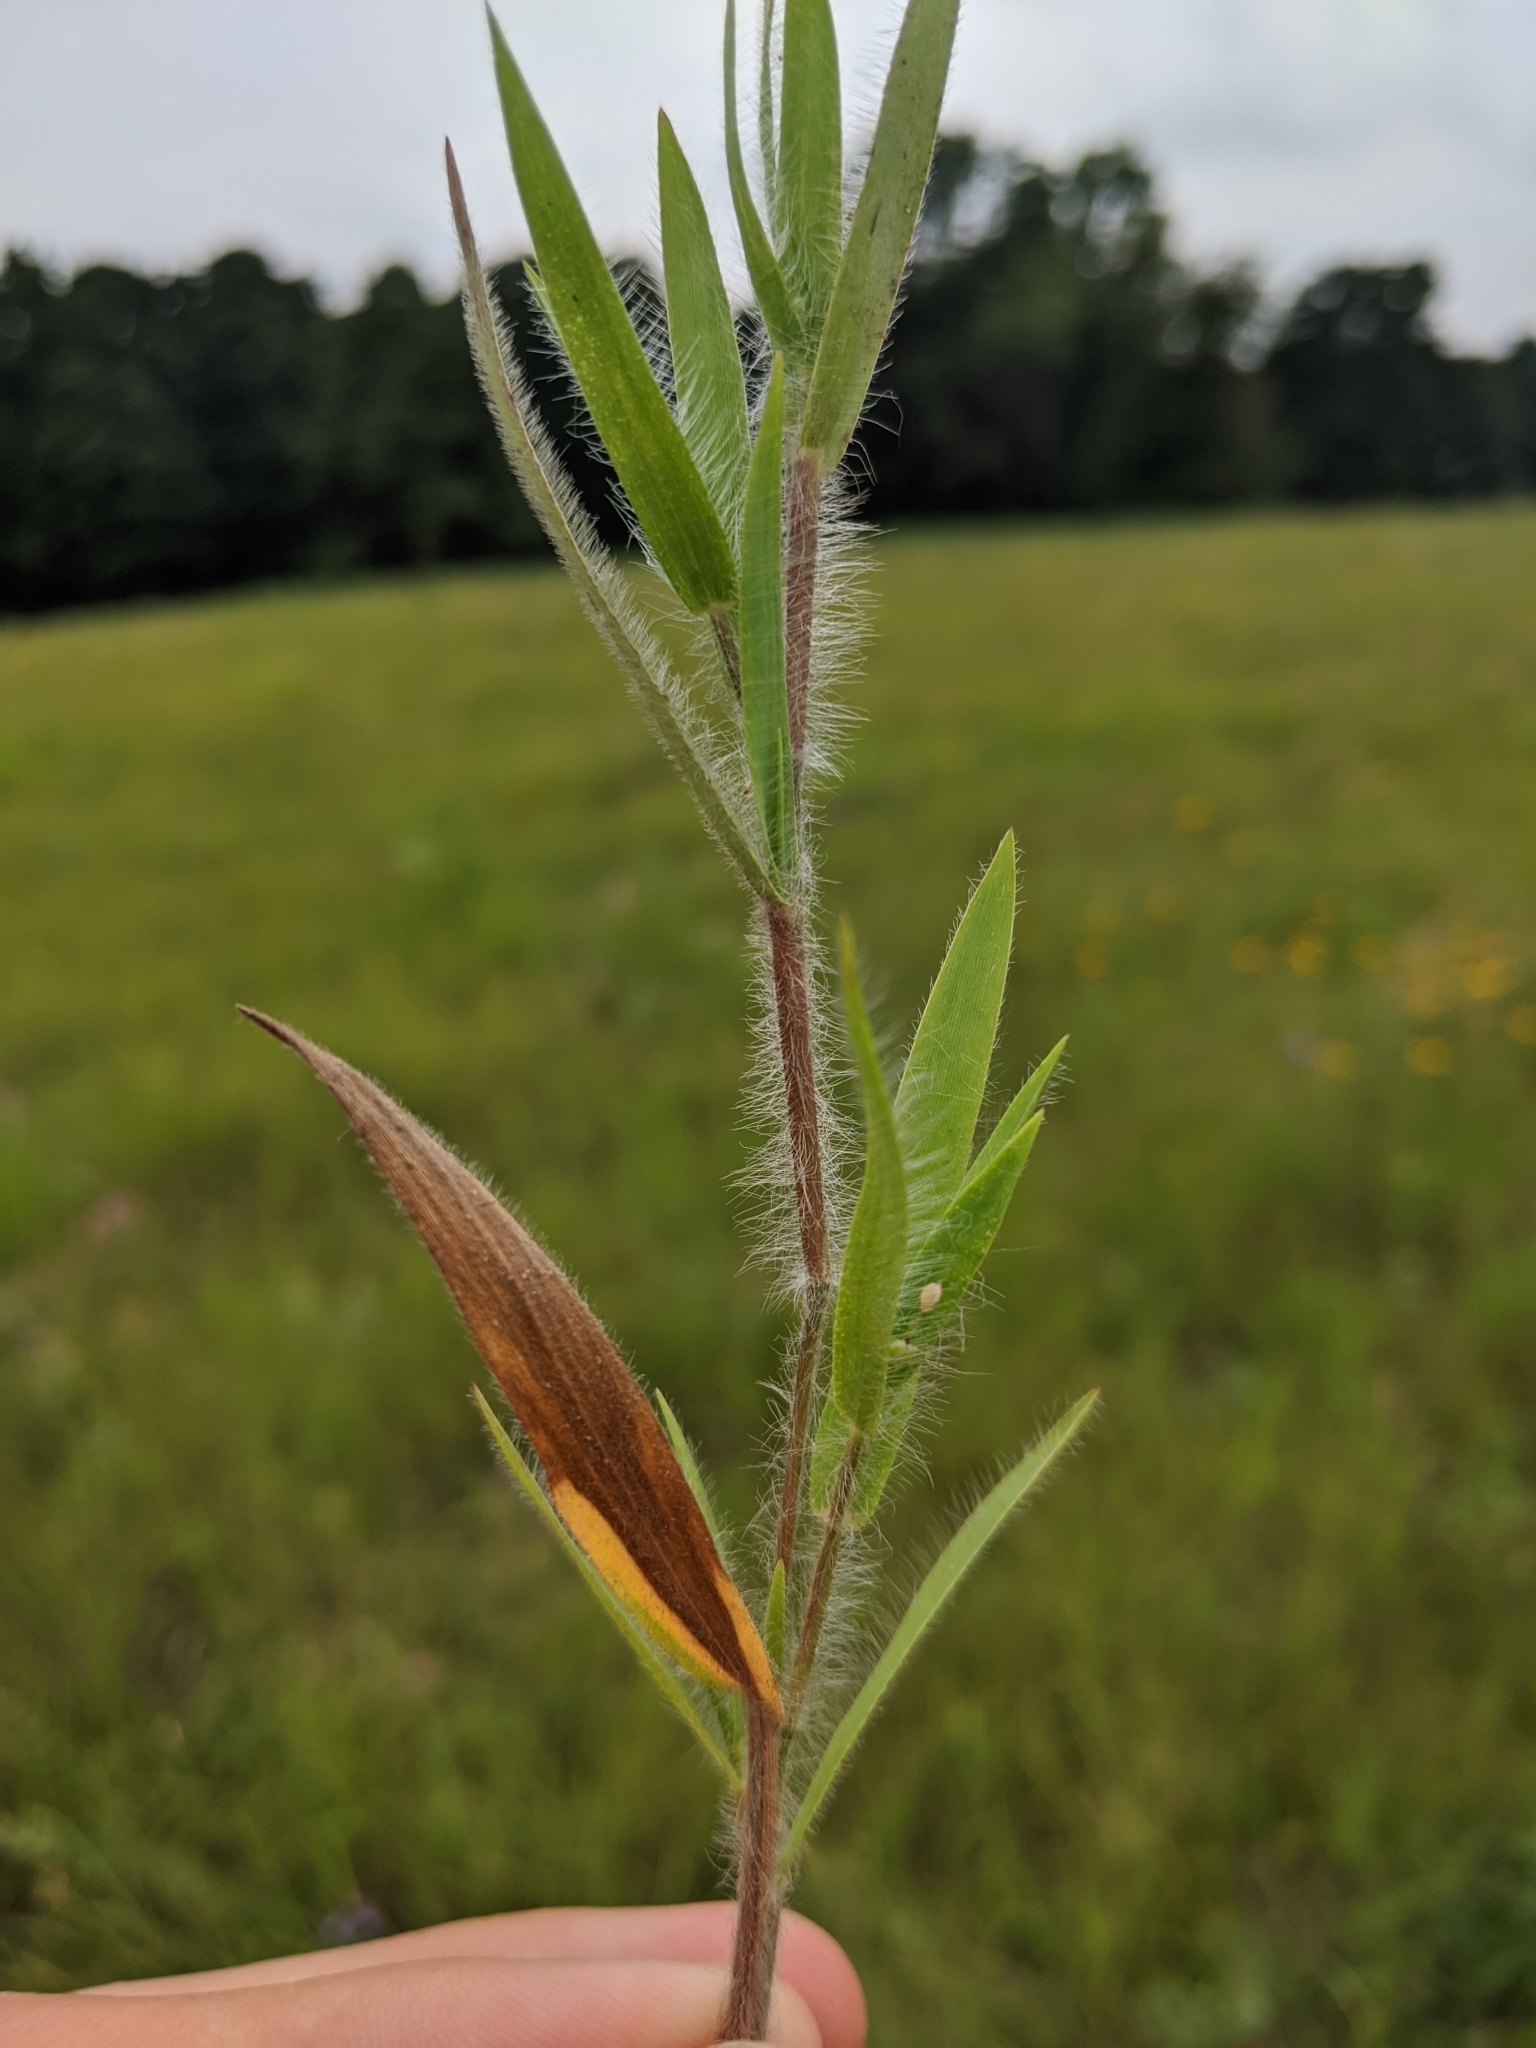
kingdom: Plantae
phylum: Tracheophyta
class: Liliopsida
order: Poales
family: Poaceae
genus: Dichanthelium
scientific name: Dichanthelium villosissimum
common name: White-haired panicgrass
